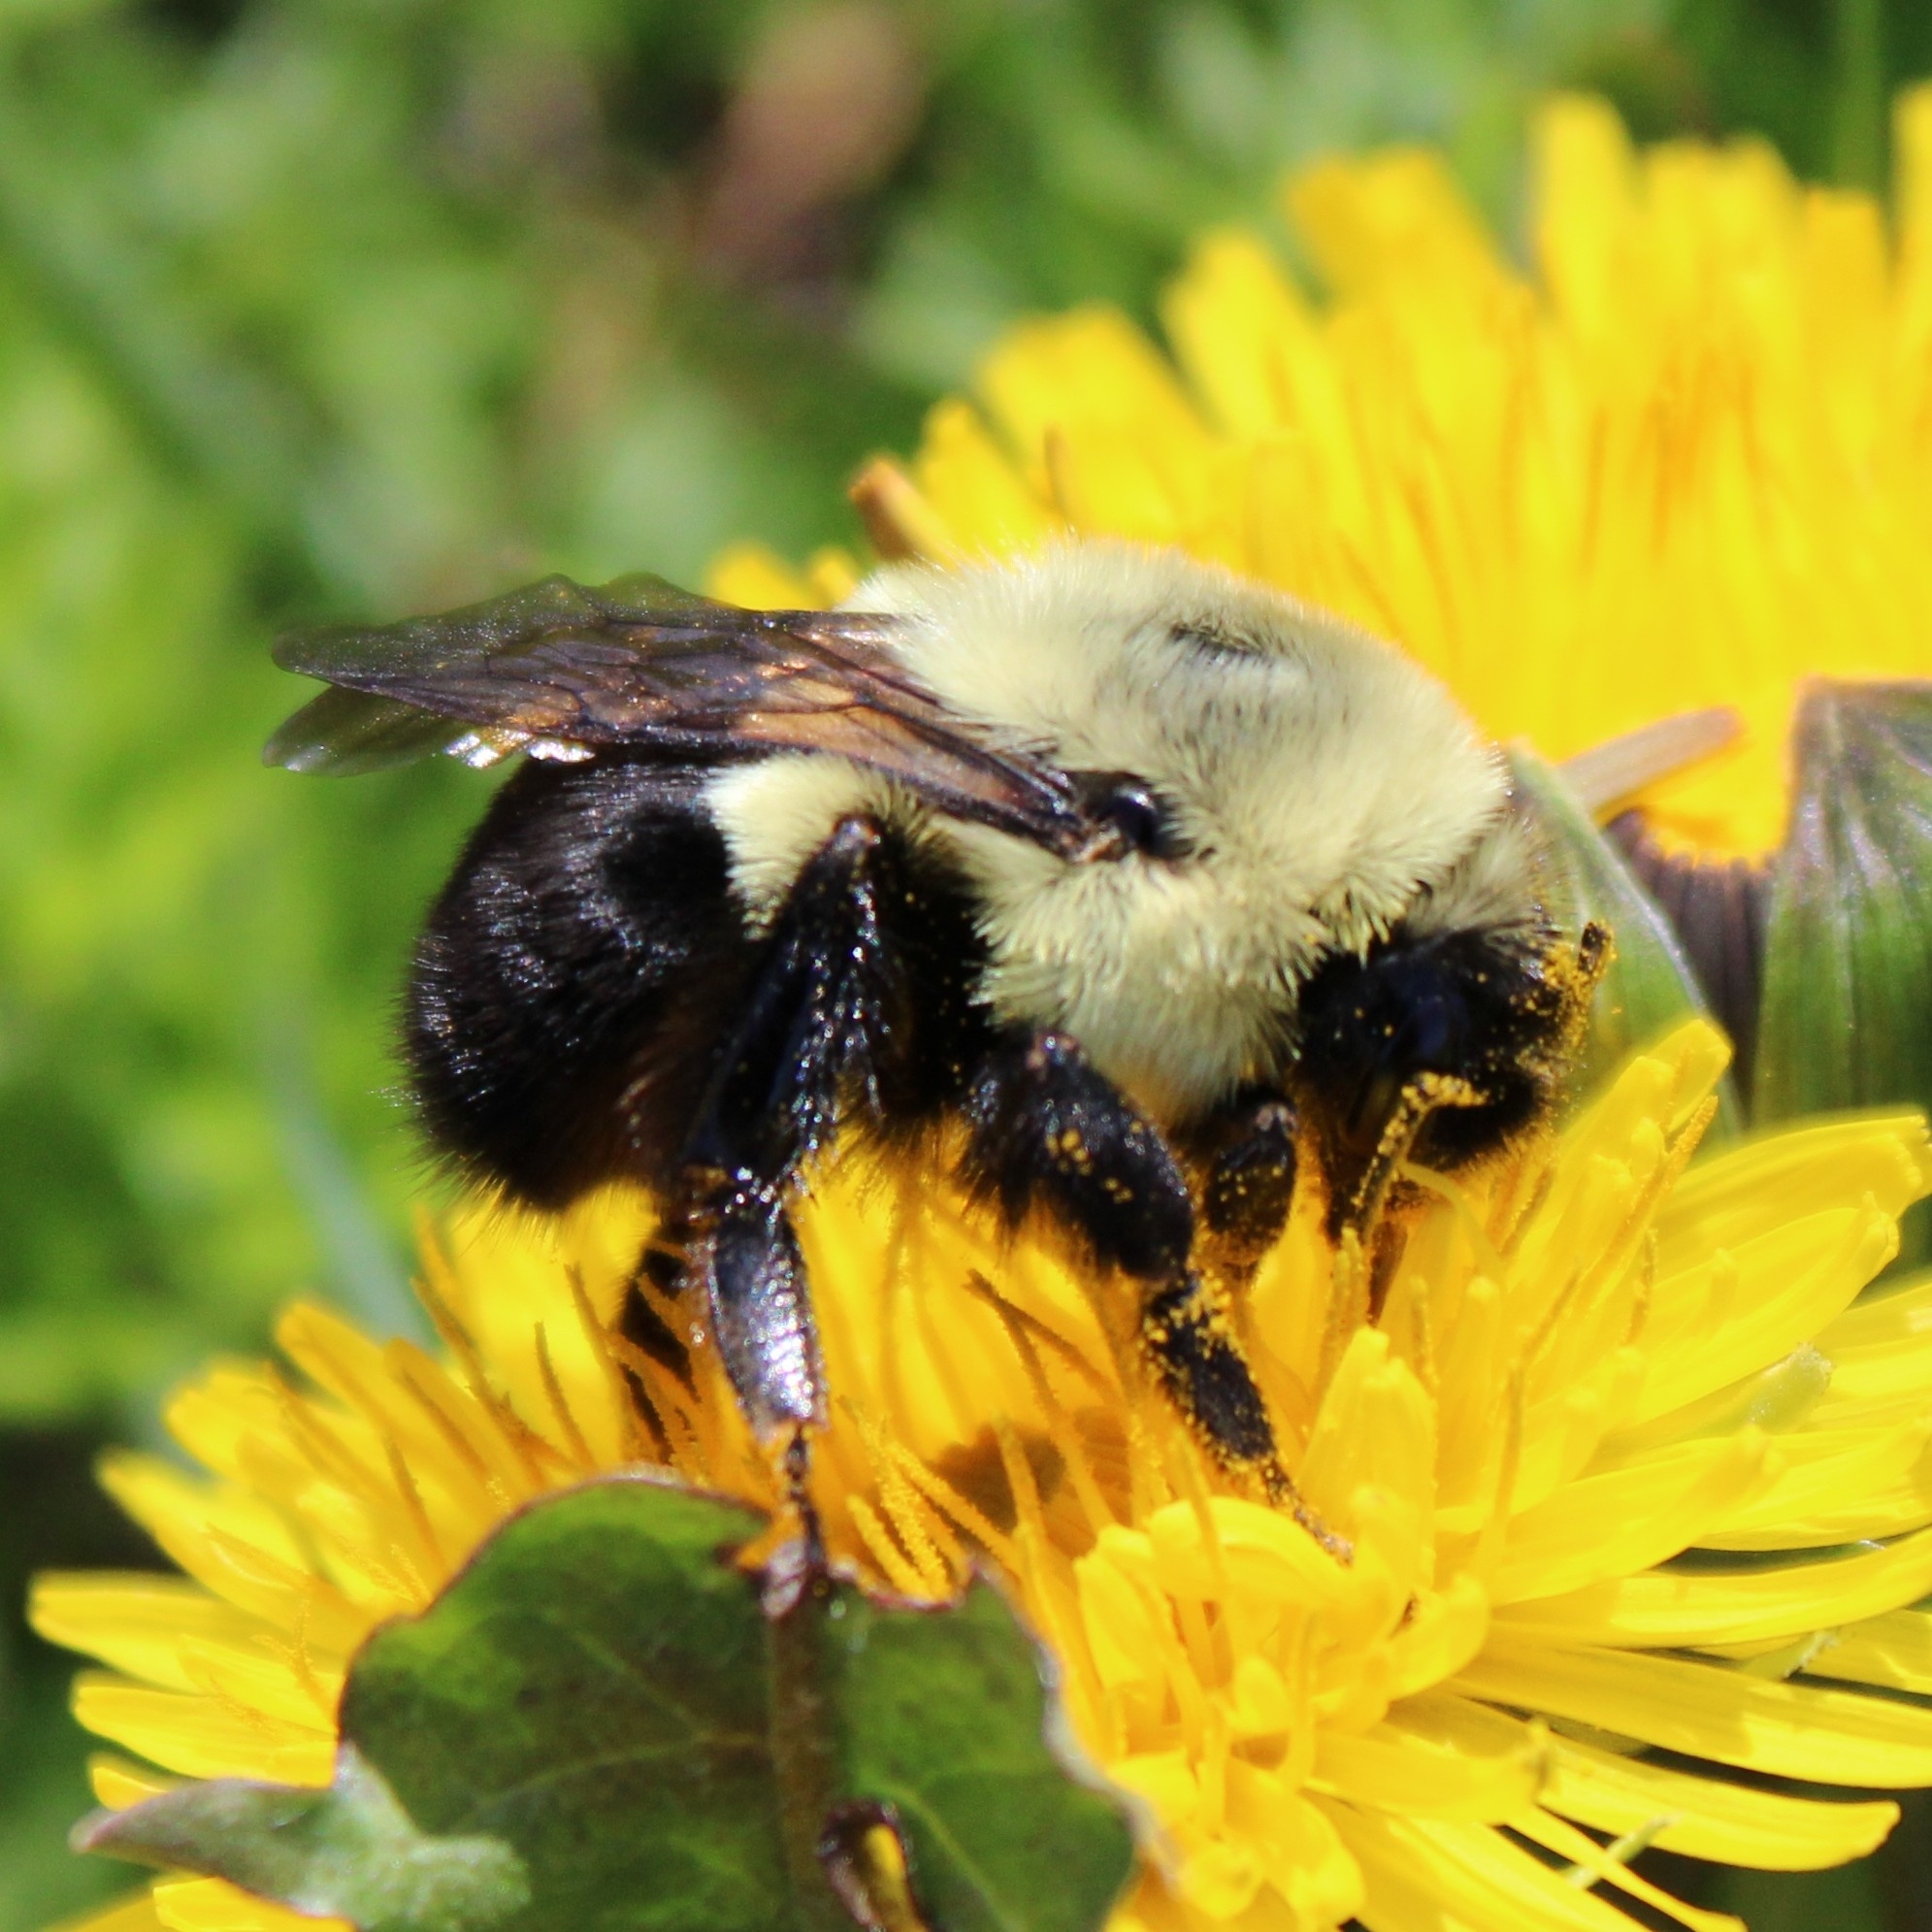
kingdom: Animalia
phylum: Arthropoda
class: Insecta
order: Hymenoptera
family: Apidae
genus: Bombus
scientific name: Bombus impatiens
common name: Common eastern bumble bee
